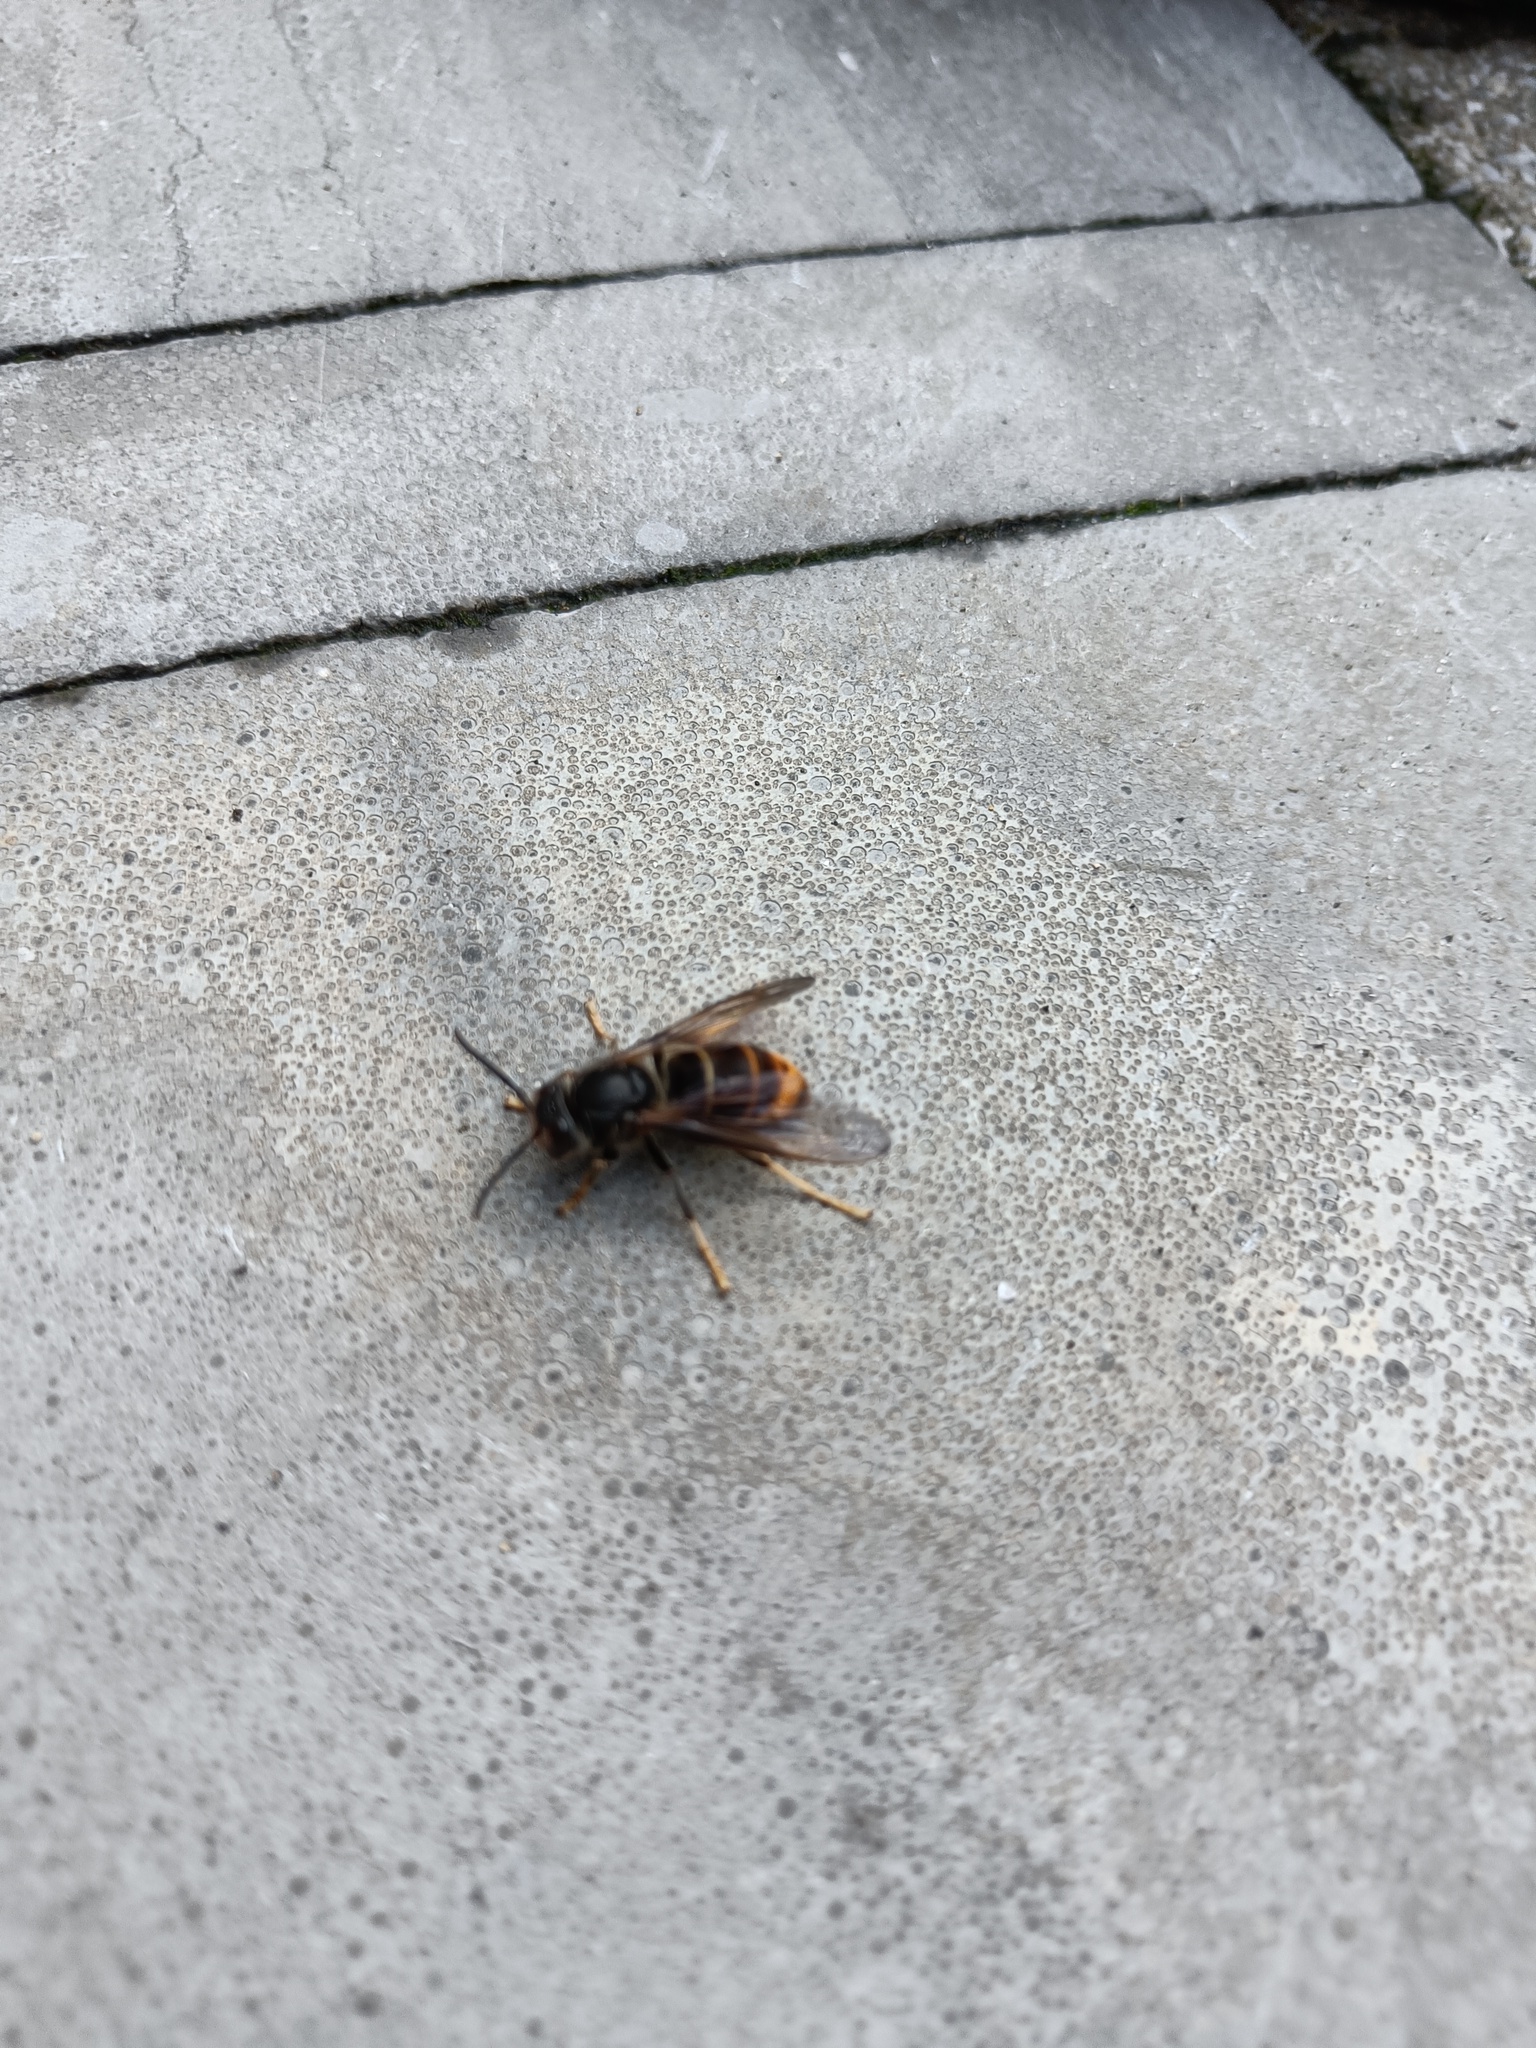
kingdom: Animalia
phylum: Arthropoda
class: Insecta
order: Hymenoptera
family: Vespidae
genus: Vespa
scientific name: Vespa velutina
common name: Asian hornet
